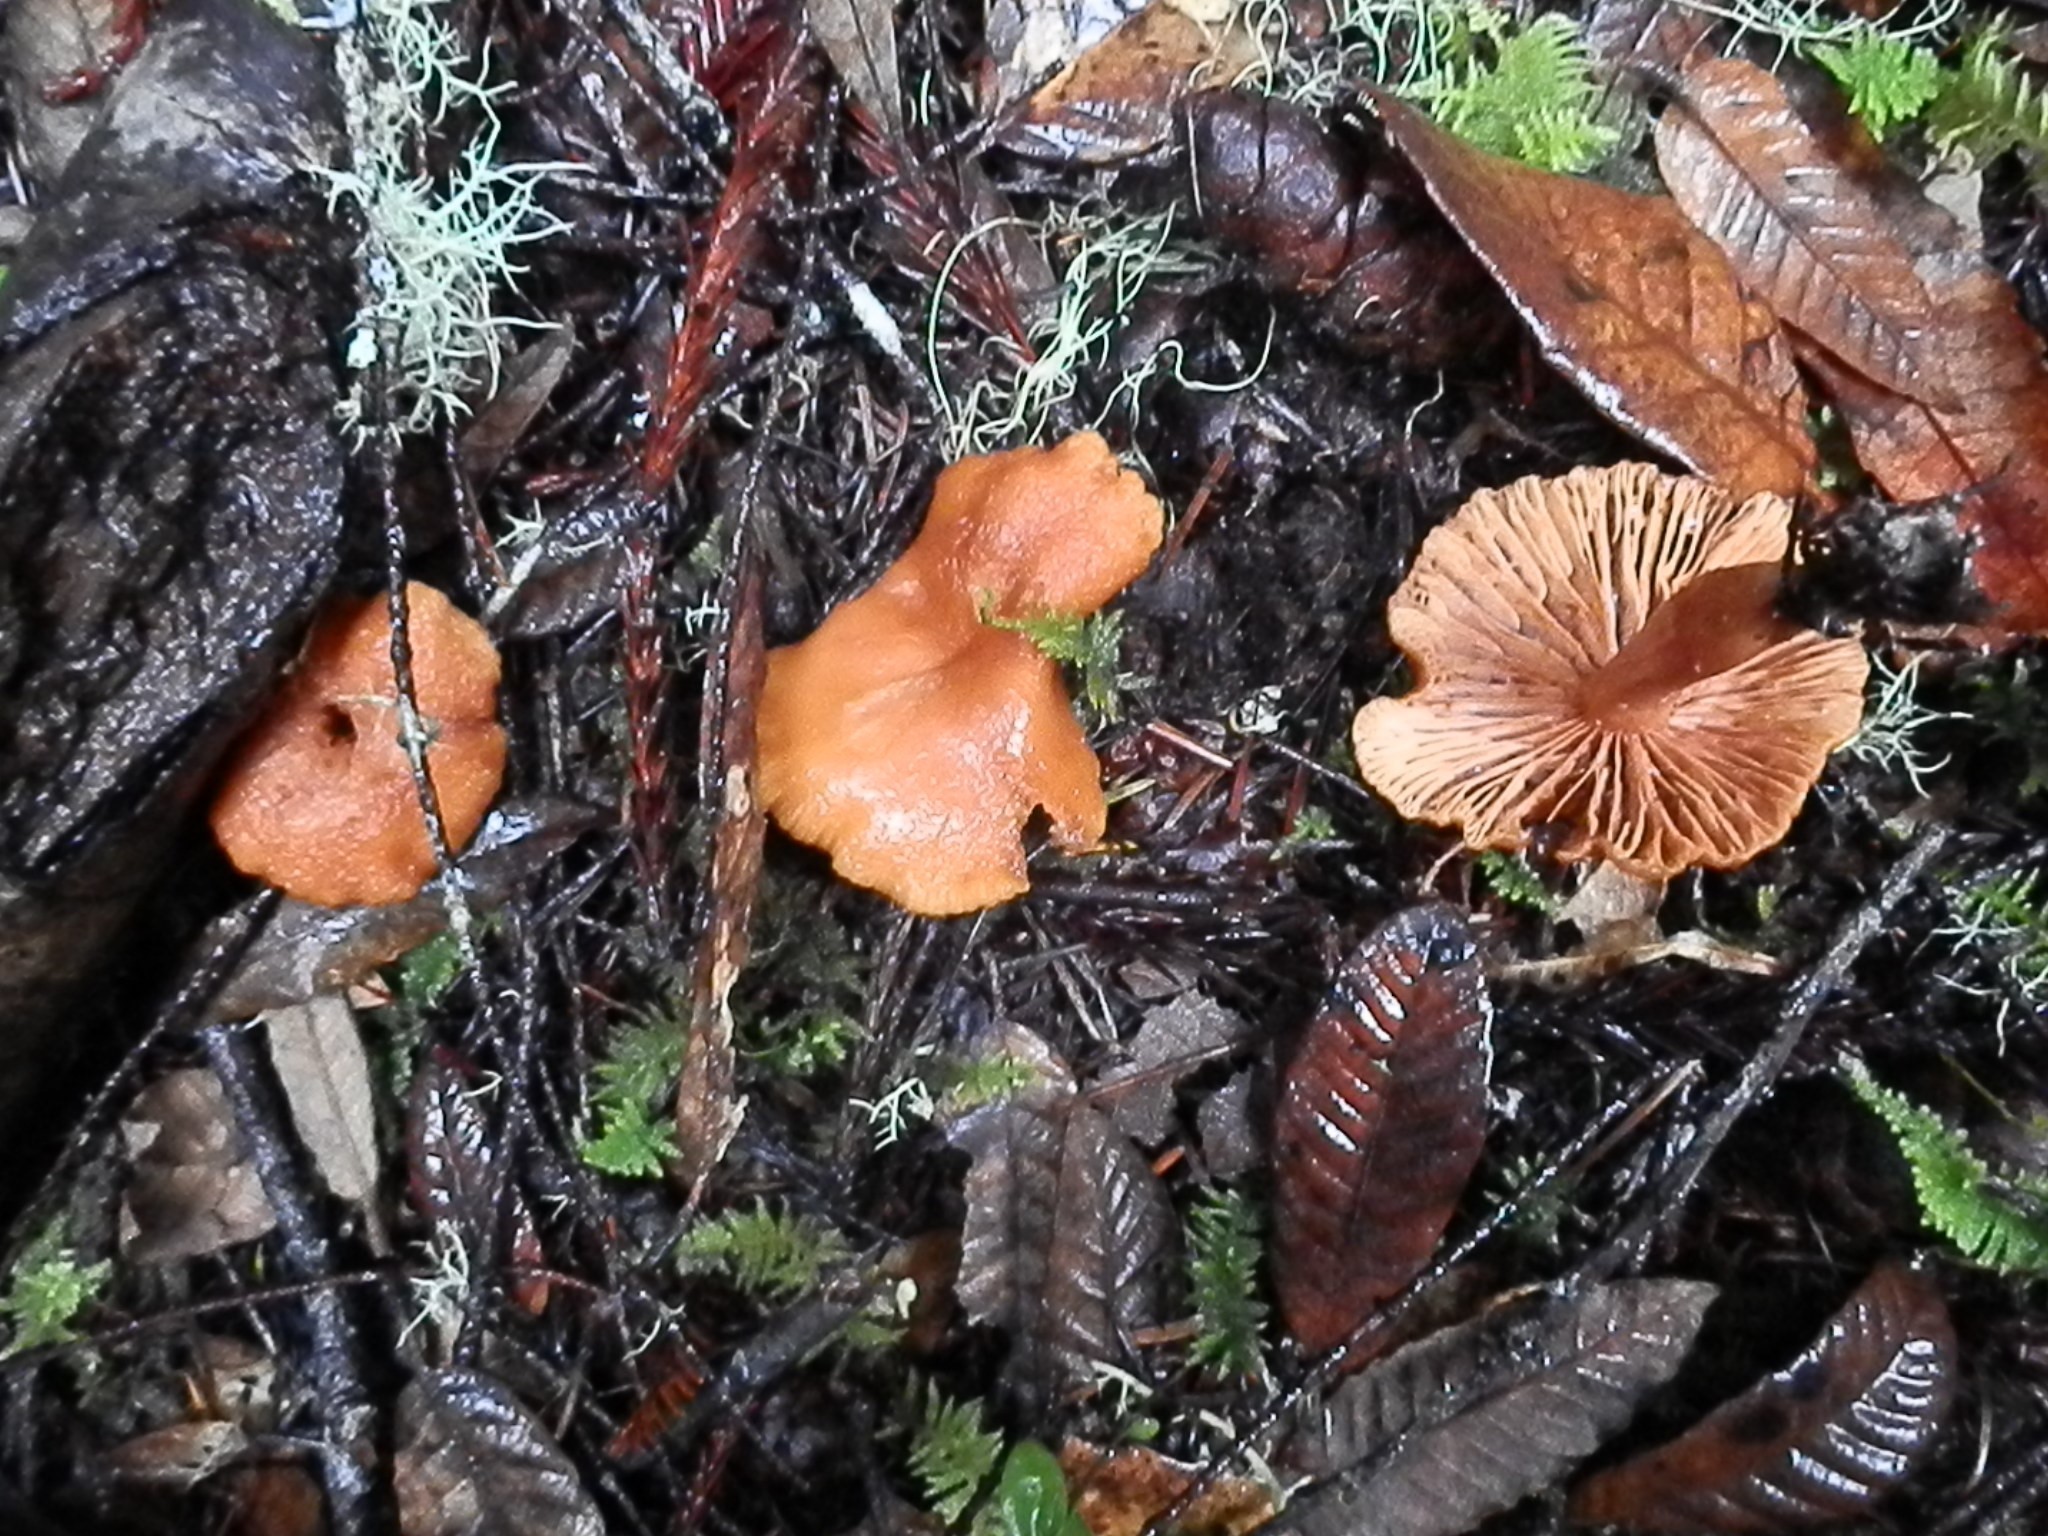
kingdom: Fungi
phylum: Basidiomycota
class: Agaricomycetes
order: Russulales
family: Russulaceae
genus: Lactarius
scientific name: Lactarius rubidus
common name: Candy cap
